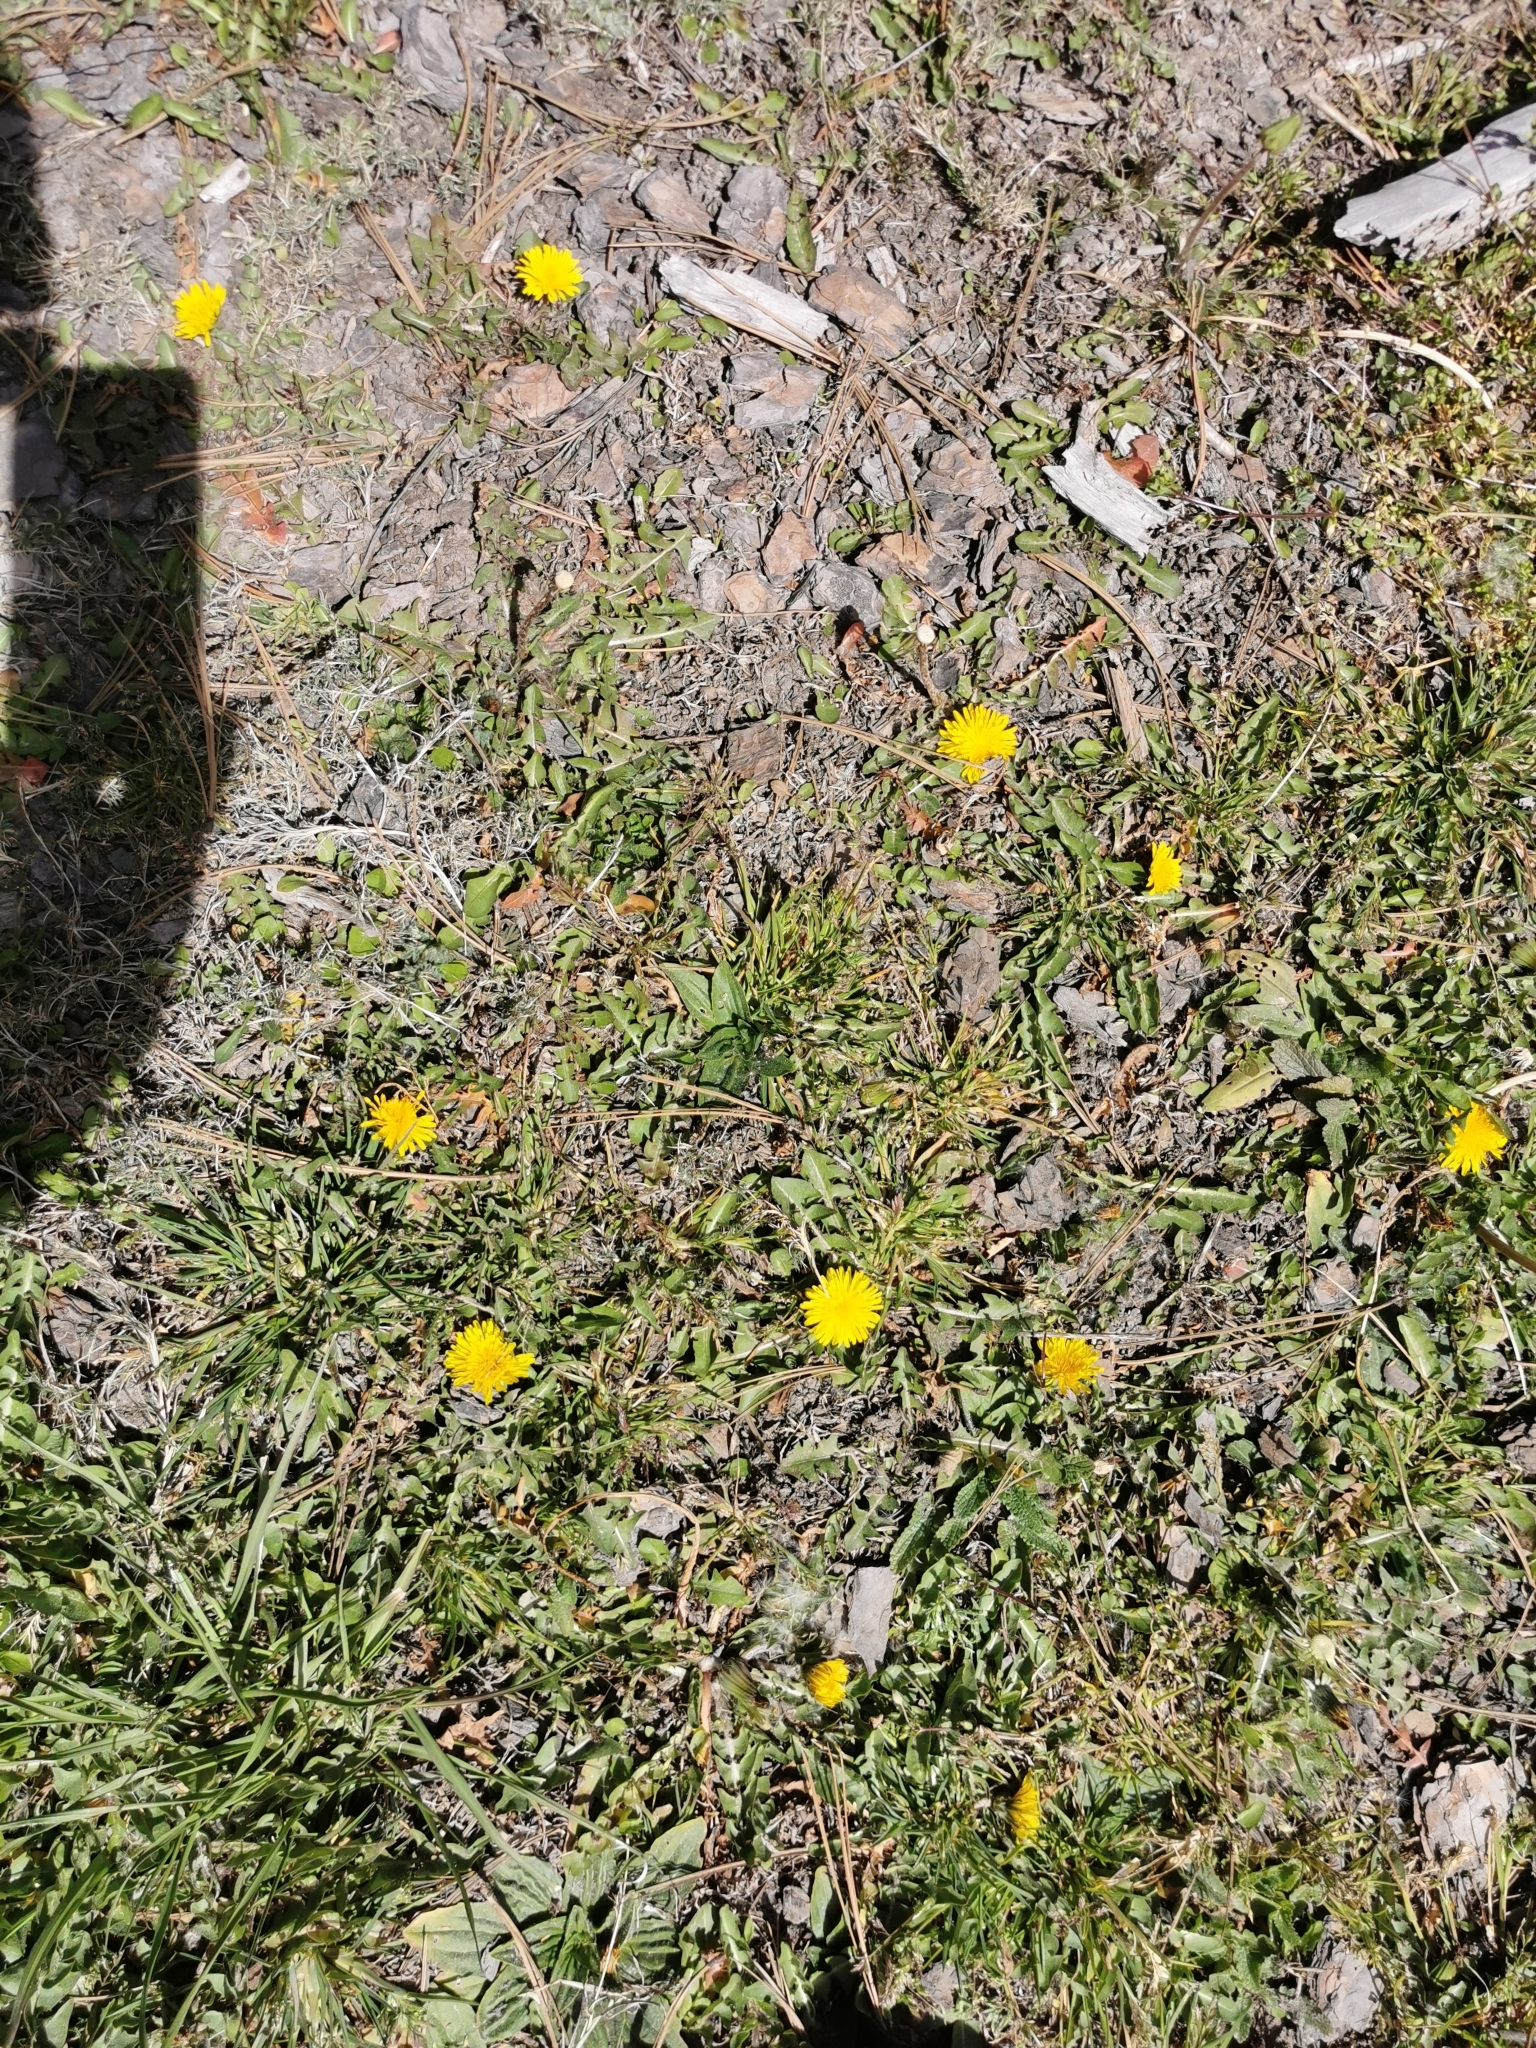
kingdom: Plantae
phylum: Tracheophyta
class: Magnoliopsida
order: Asterales
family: Asteraceae
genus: Taraxacum
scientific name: Taraxacum officinale
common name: Common dandelion
